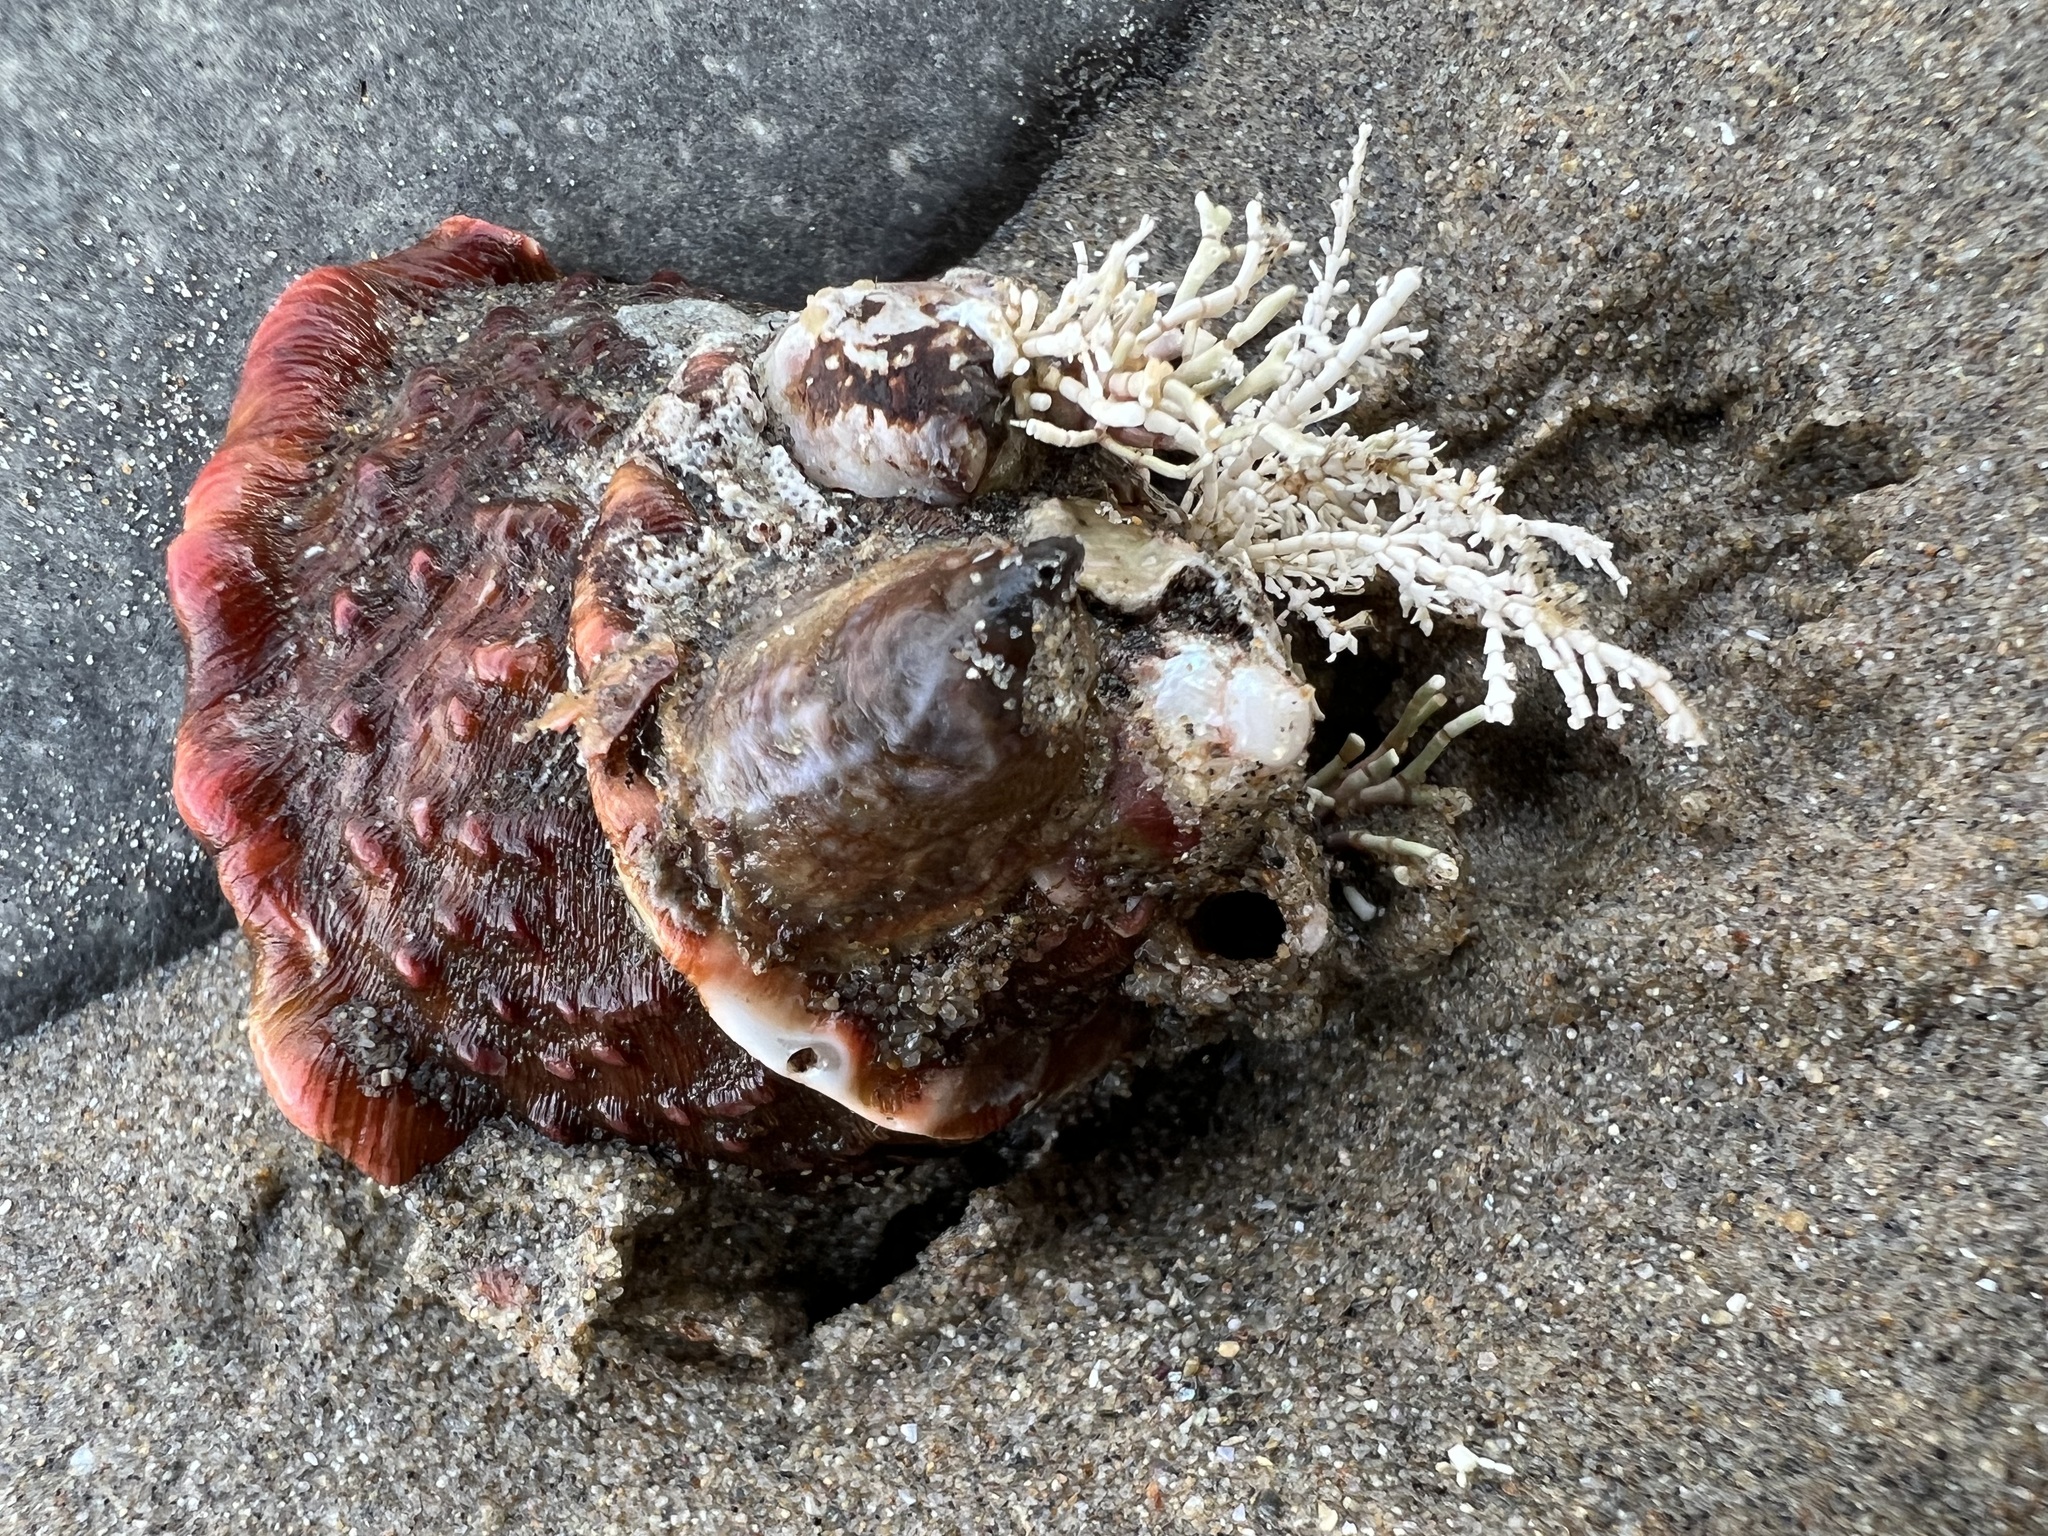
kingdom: Animalia
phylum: Mollusca
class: Gastropoda
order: Littorinimorpha
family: Calyptraeidae
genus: Crepidula
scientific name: Crepidula onyx
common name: Onyx slippersnail
